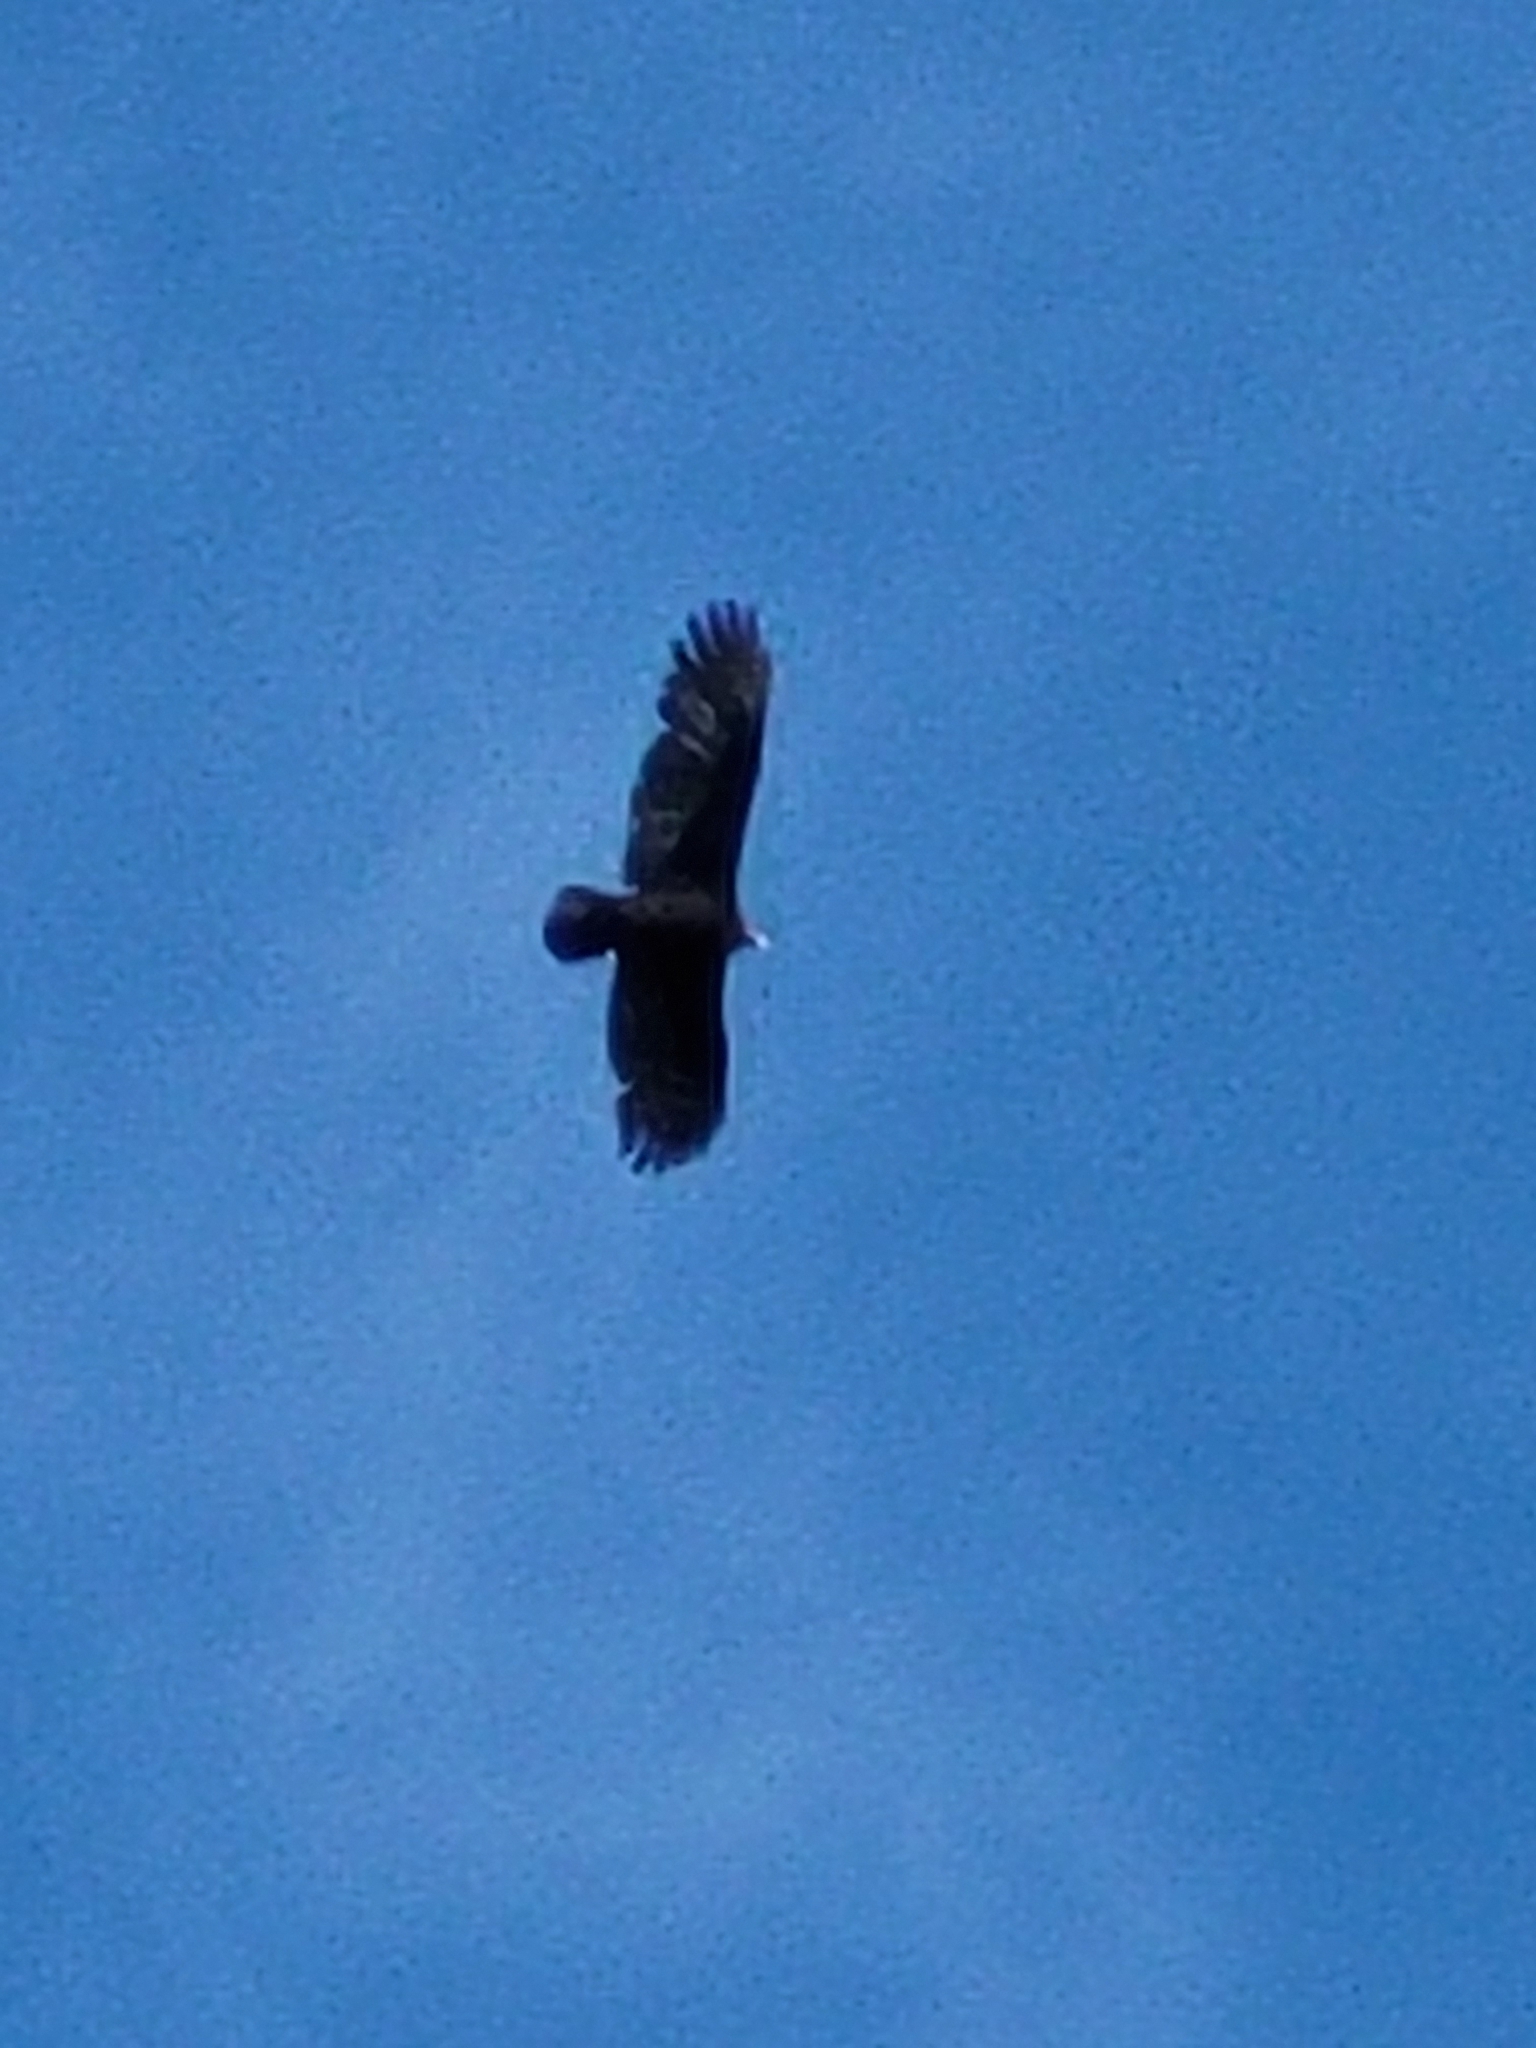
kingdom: Animalia
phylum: Chordata
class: Aves
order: Accipitriformes
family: Cathartidae
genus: Cathartes
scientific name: Cathartes aura
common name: Turkey vulture
